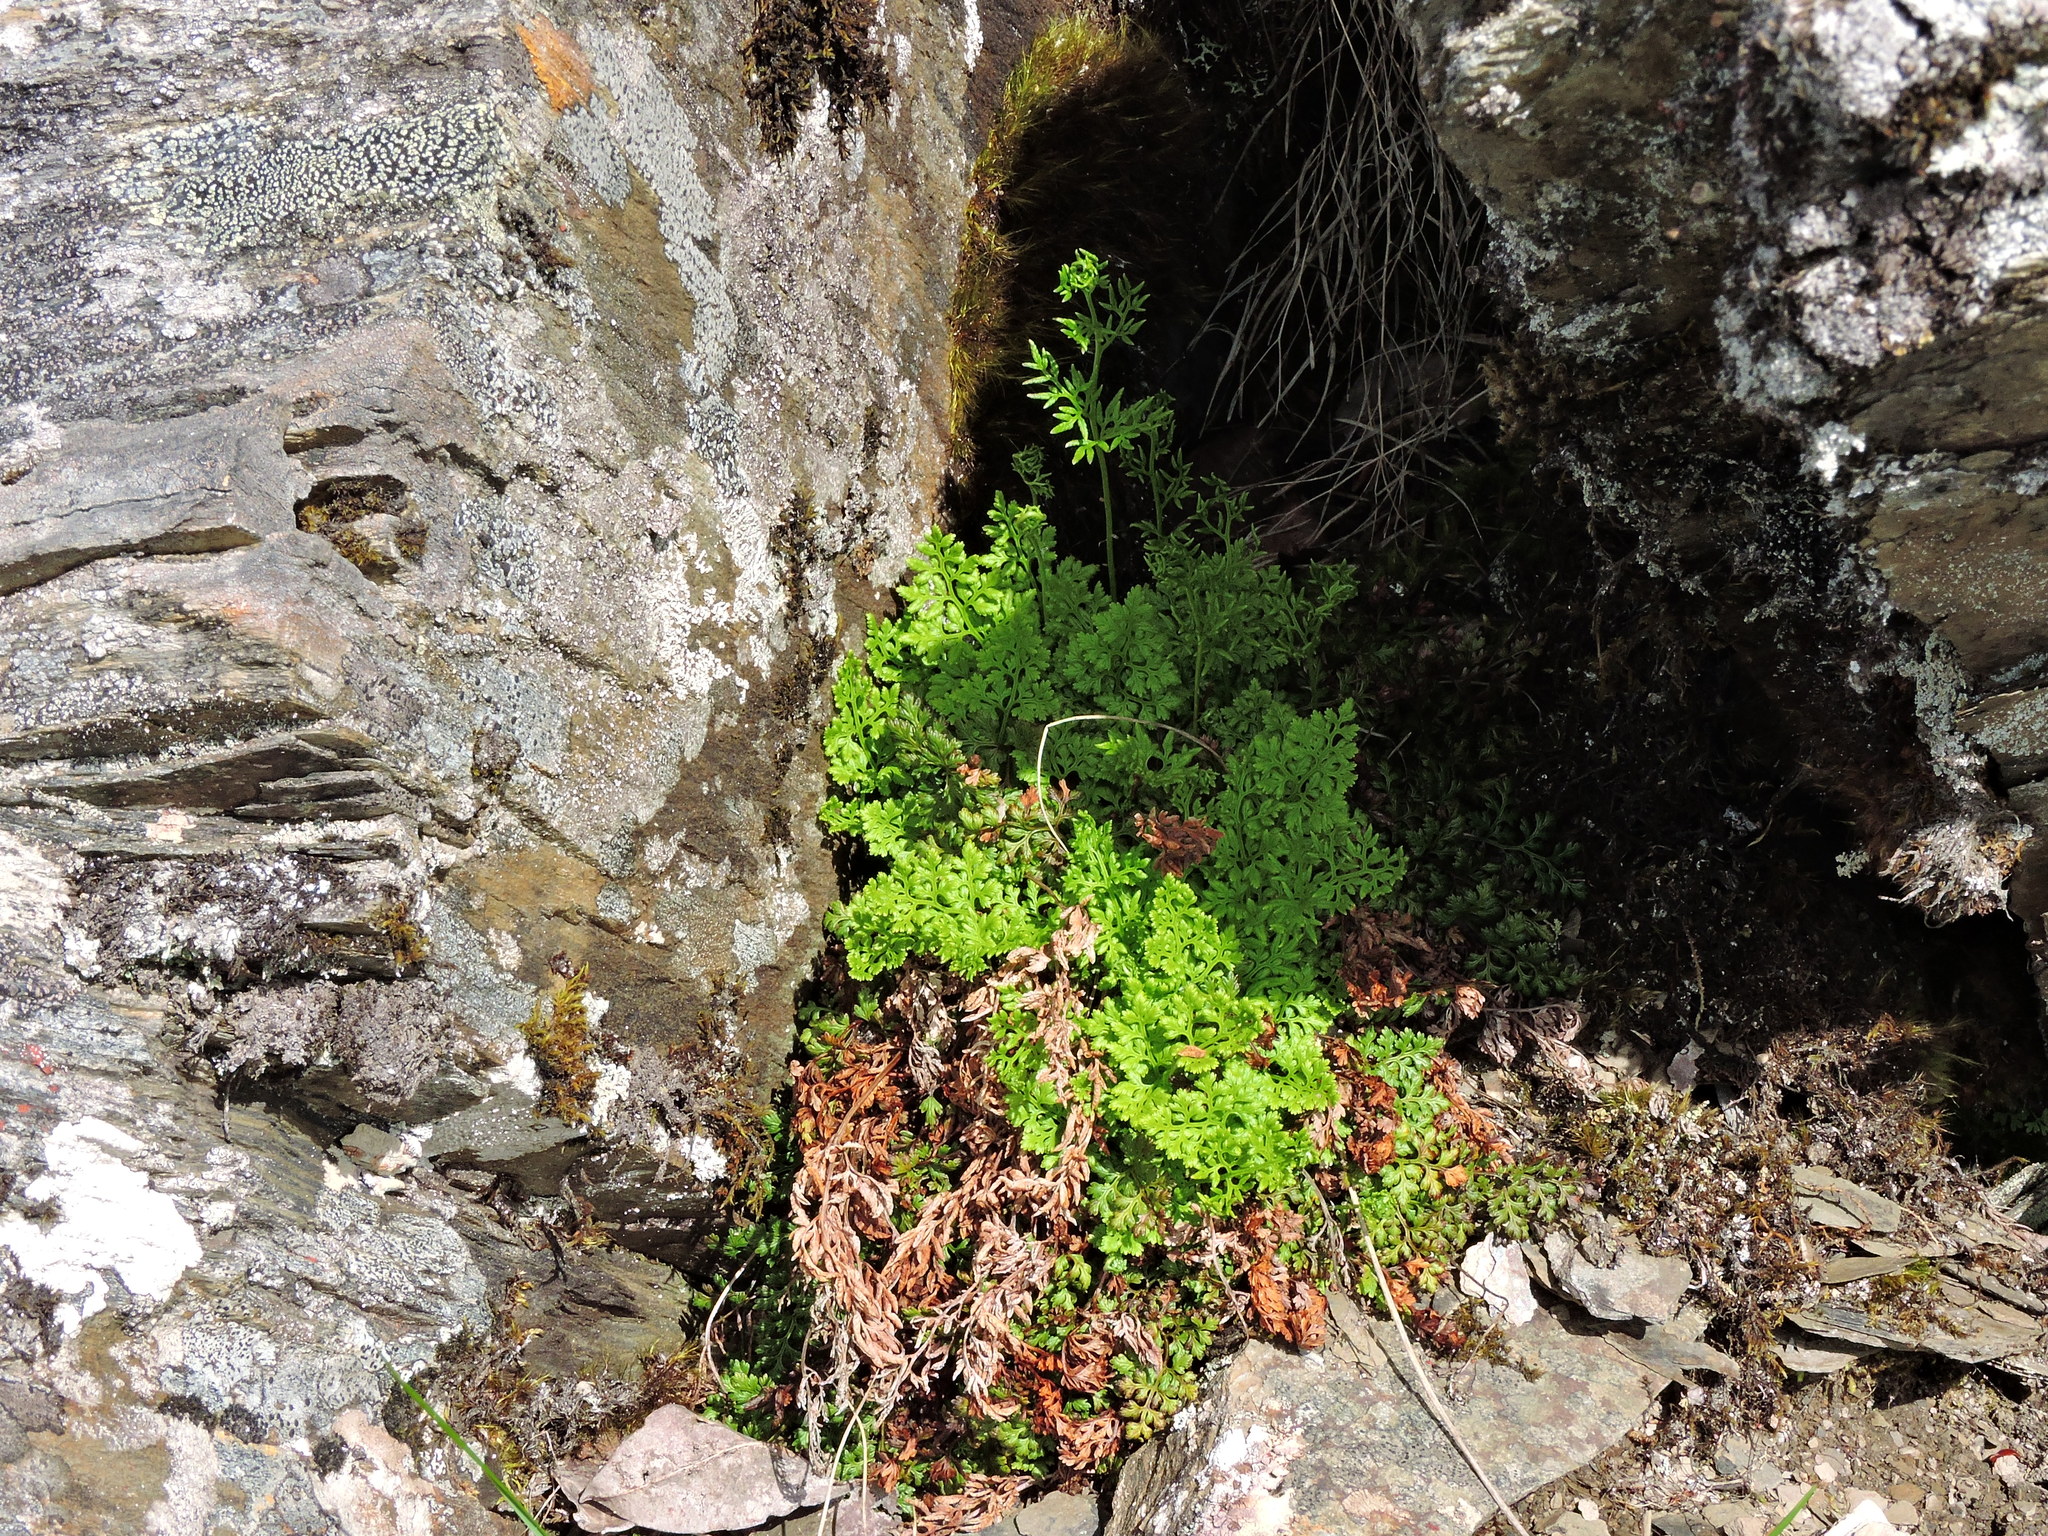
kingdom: Plantae
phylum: Tracheophyta
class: Polypodiopsida
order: Polypodiales
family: Pteridaceae
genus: Cryptogramma
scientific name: Cryptogramma brunoniana
